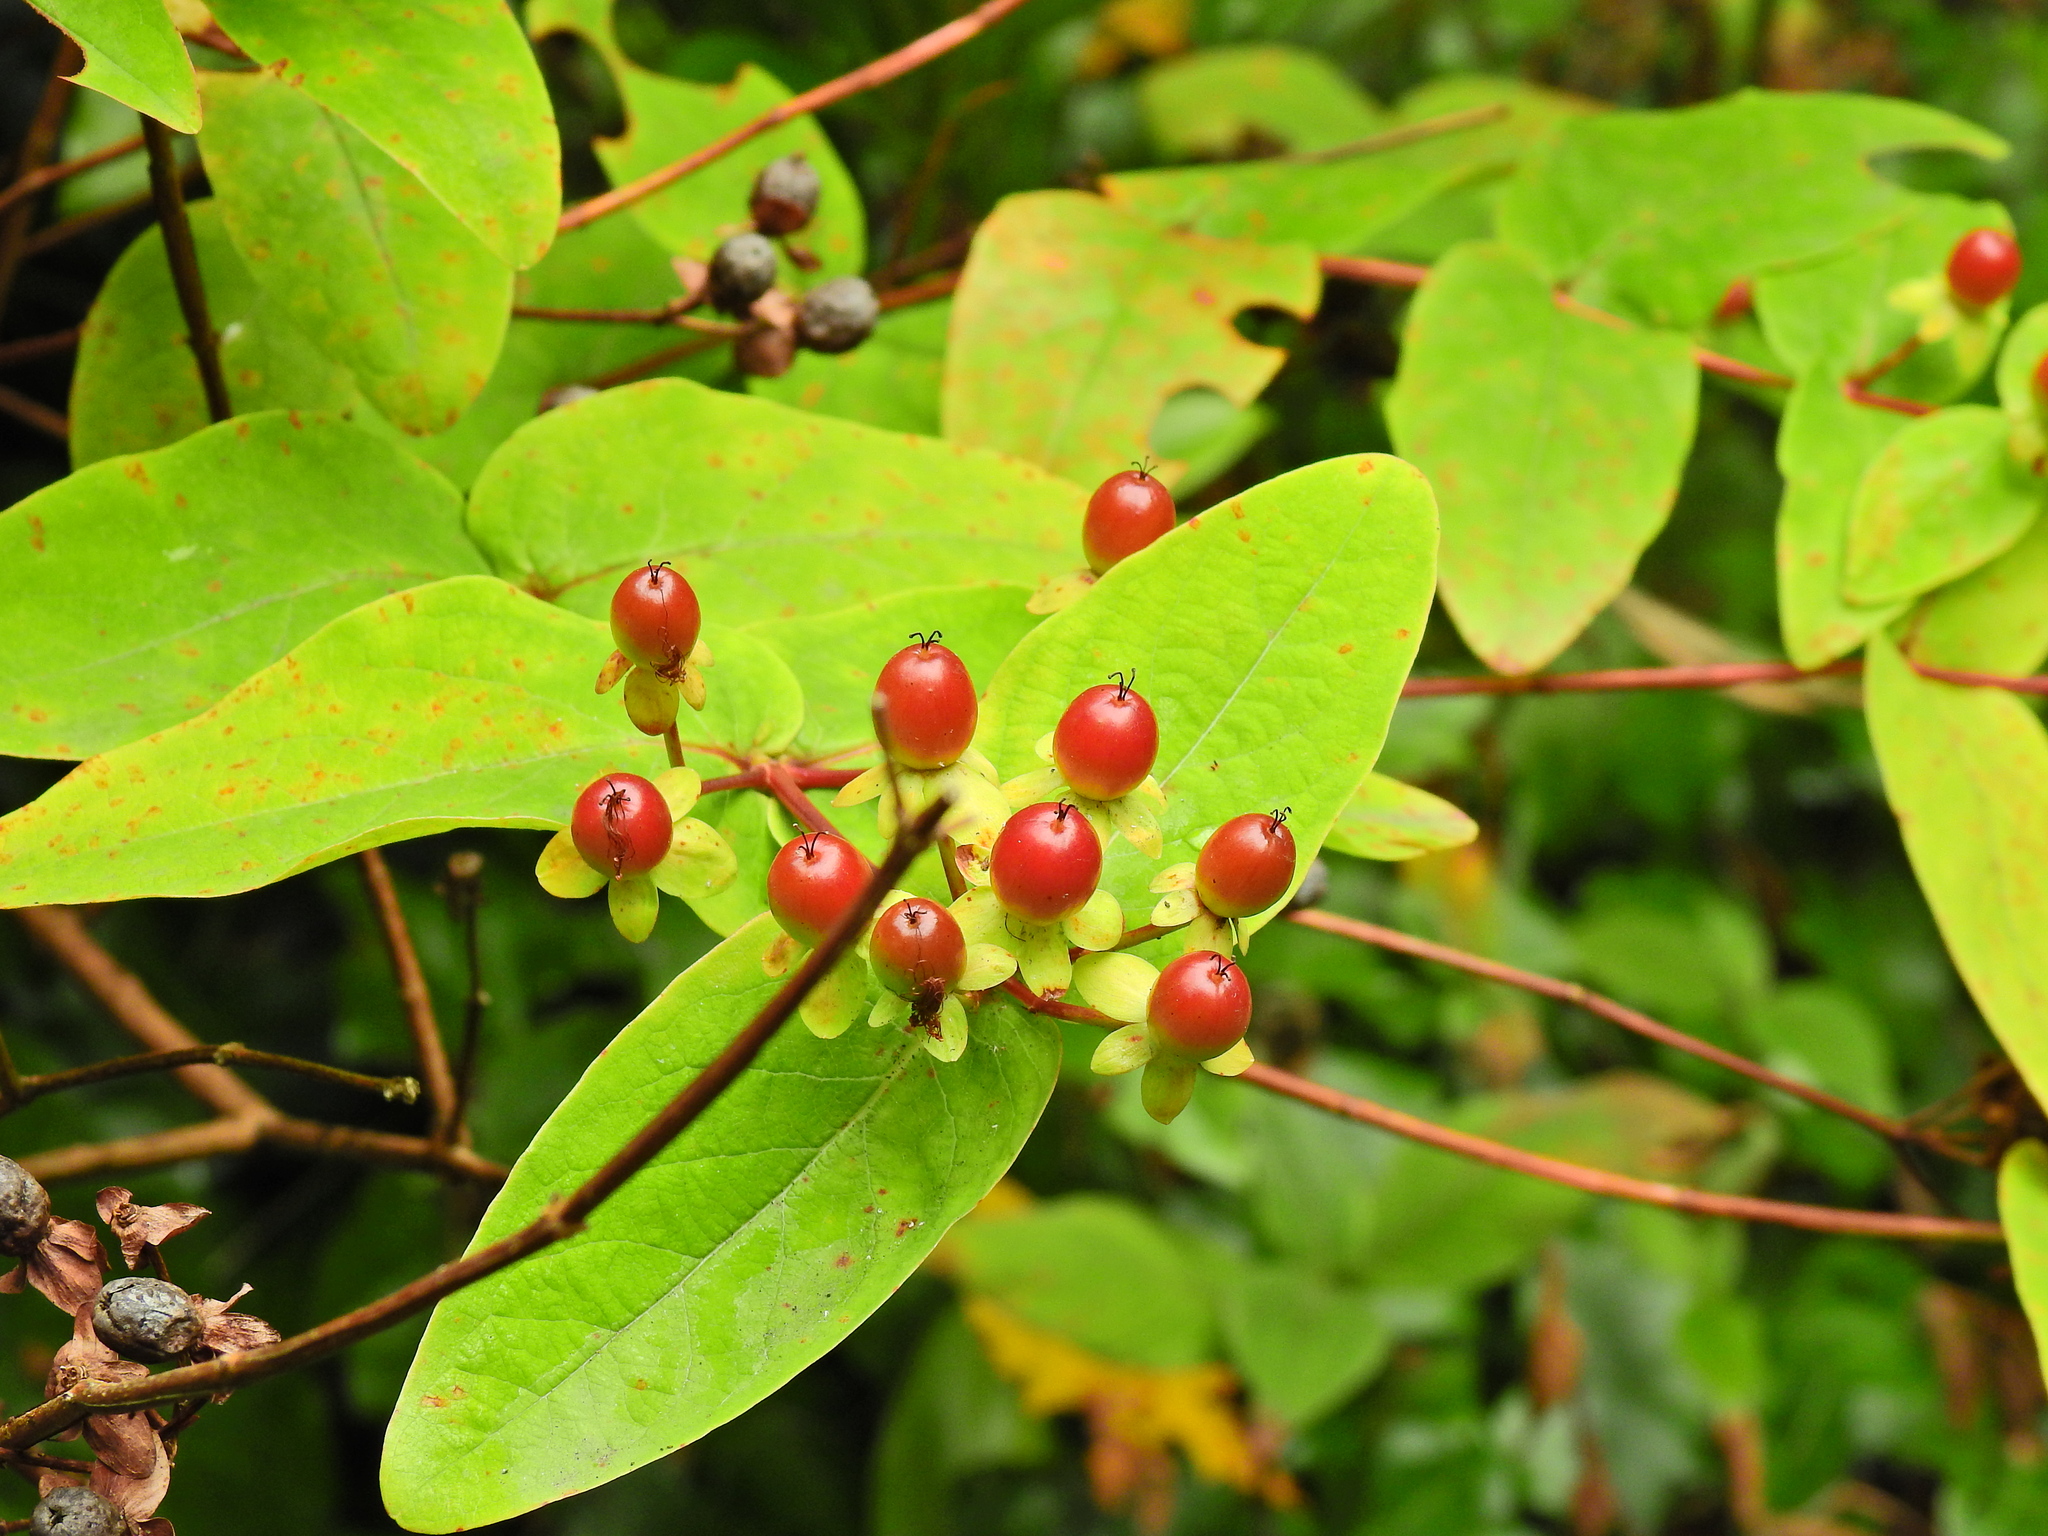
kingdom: Plantae
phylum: Tracheophyta
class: Magnoliopsida
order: Malpighiales
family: Hypericaceae
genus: Hypericum
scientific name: Hypericum androsaemum
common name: Sweet-amber
